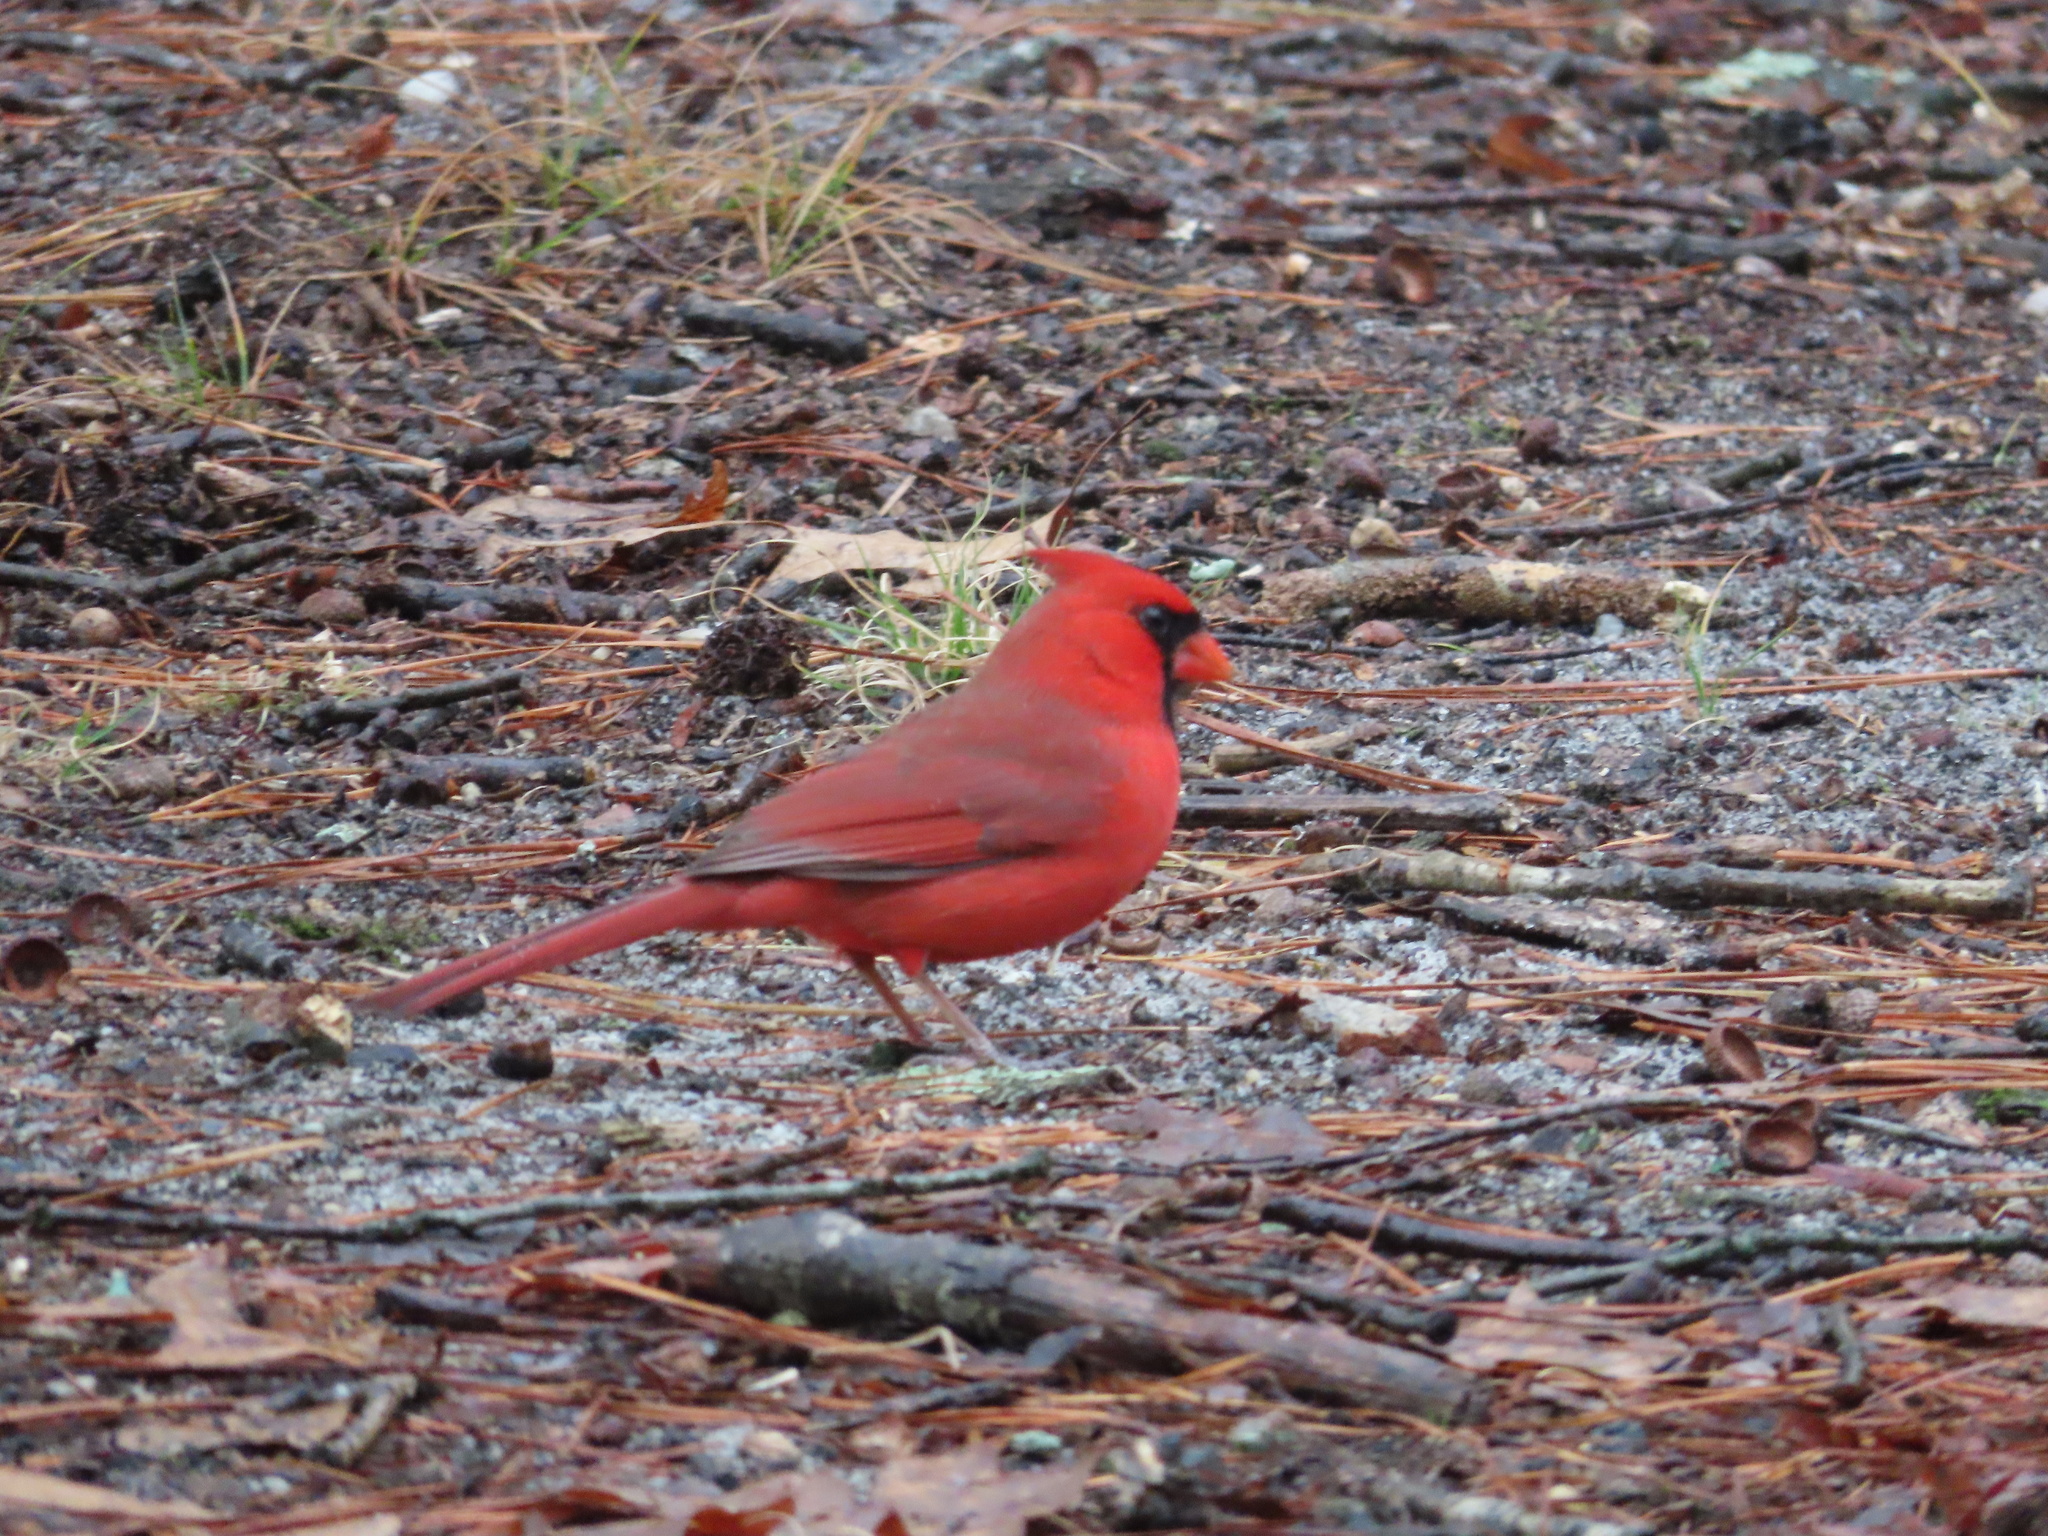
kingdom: Animalia
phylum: Chordata
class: Aves
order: Passeriformes
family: Cardinalidae
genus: Cardinalis
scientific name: Cardinalis cardinalis
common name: Northern cardinal
